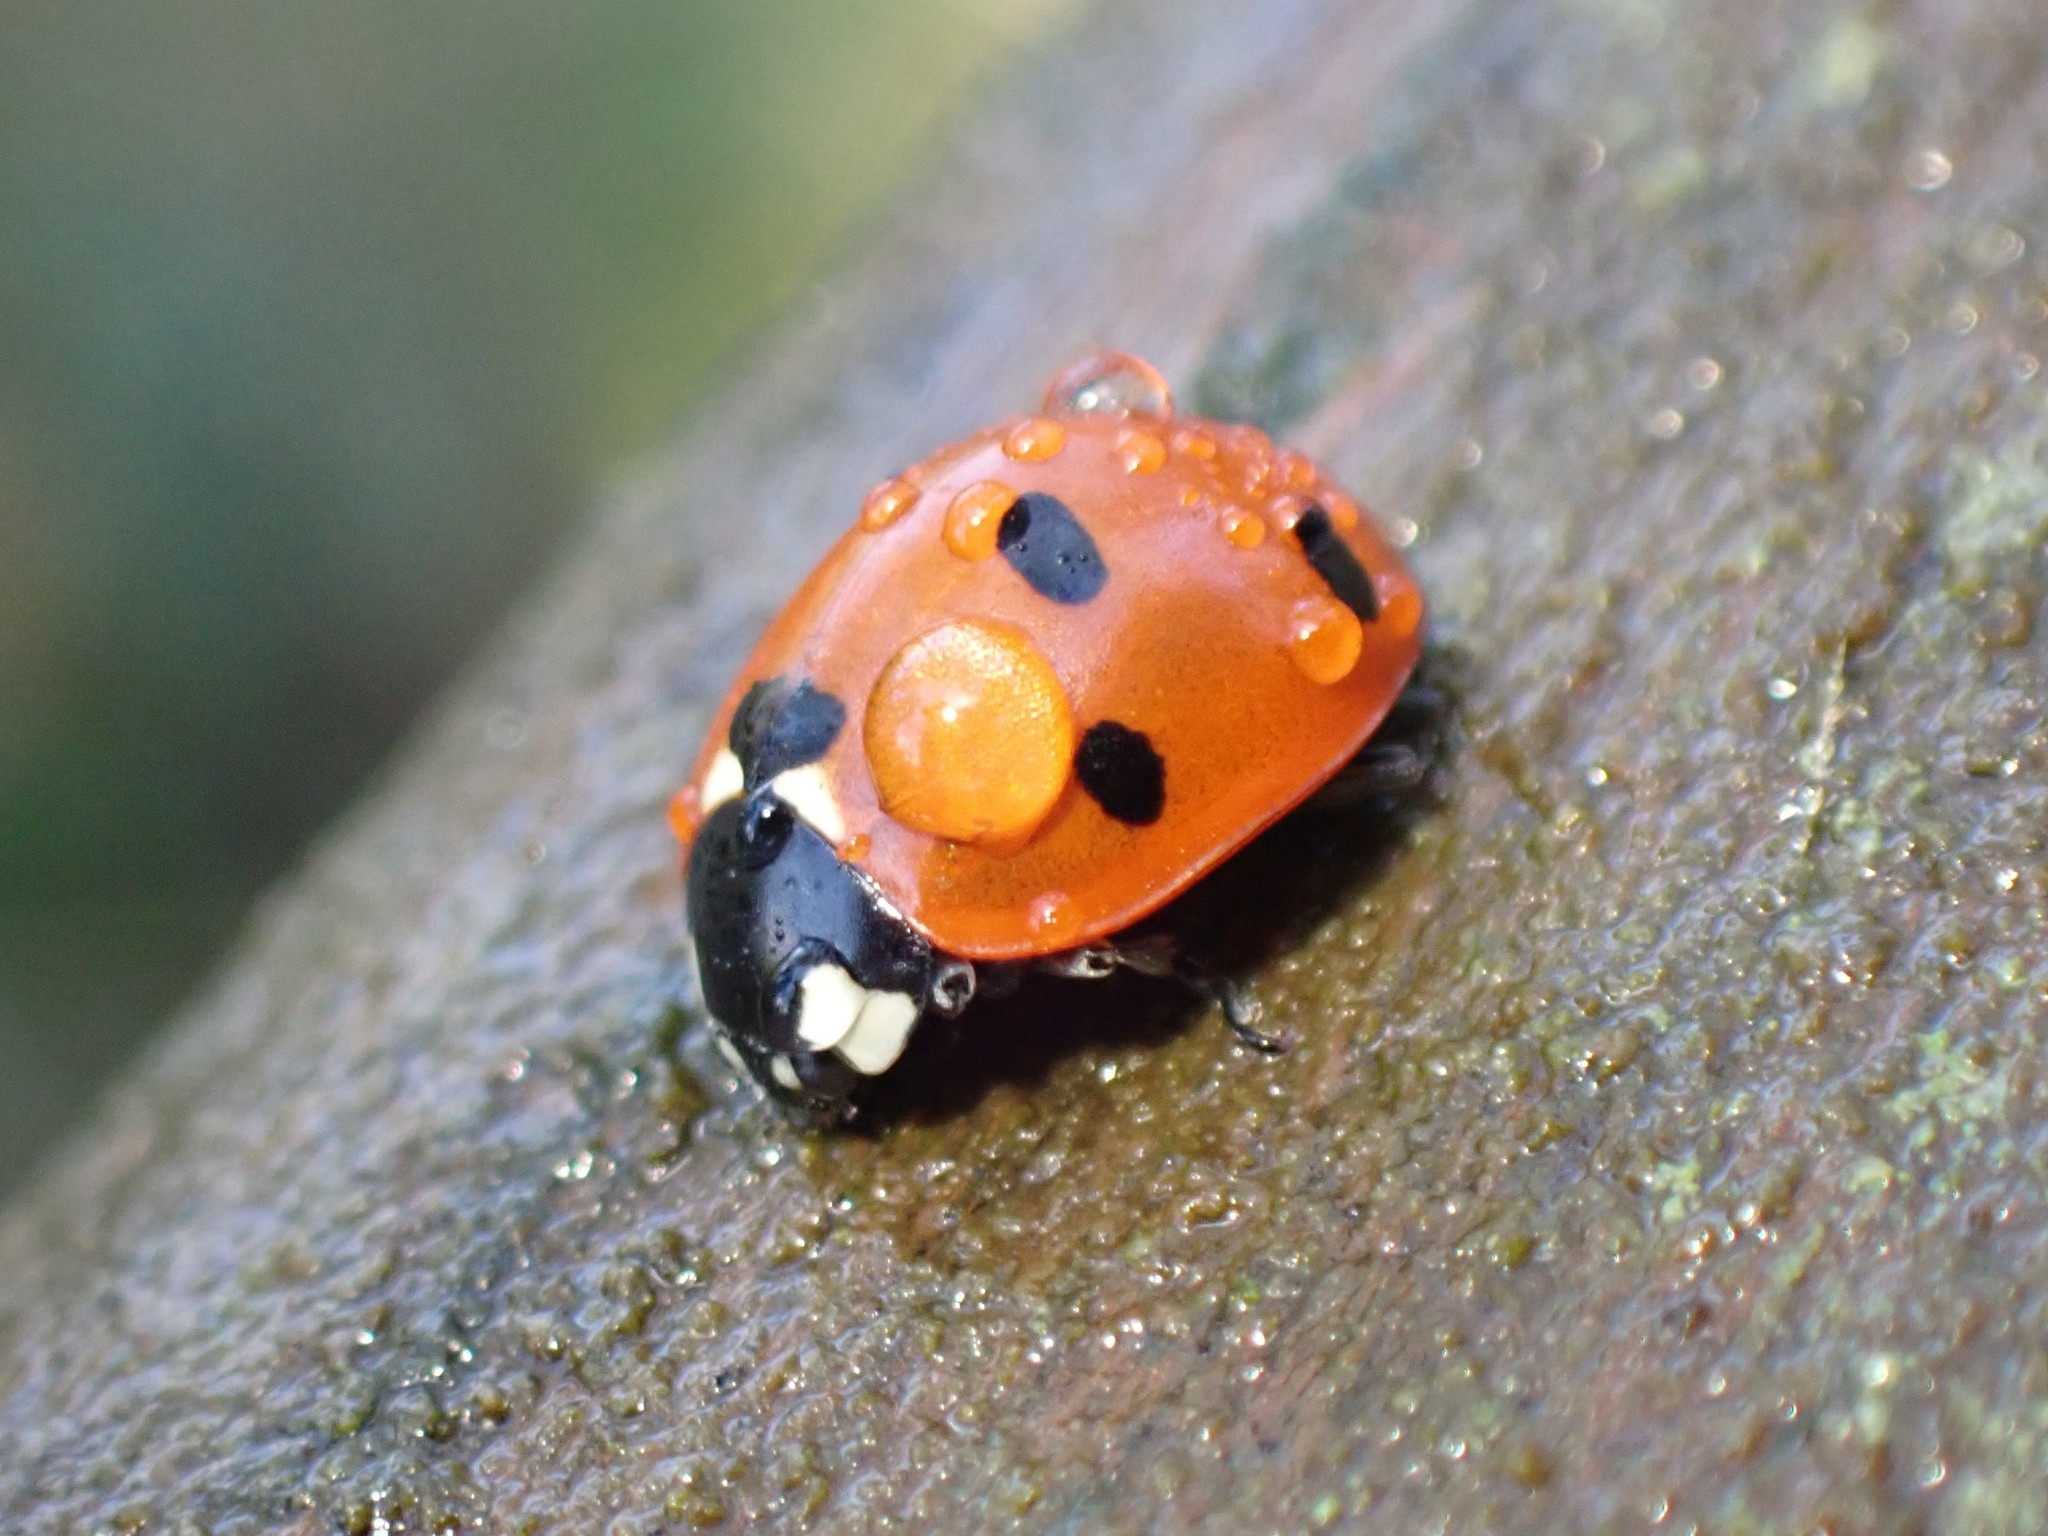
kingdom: Animalia
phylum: Arthropoda
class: Insecta
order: Coleoptera
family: Coccinellidae
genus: Coccinella
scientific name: Coccinella septempunctata
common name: Sevenspotted lady beetle
